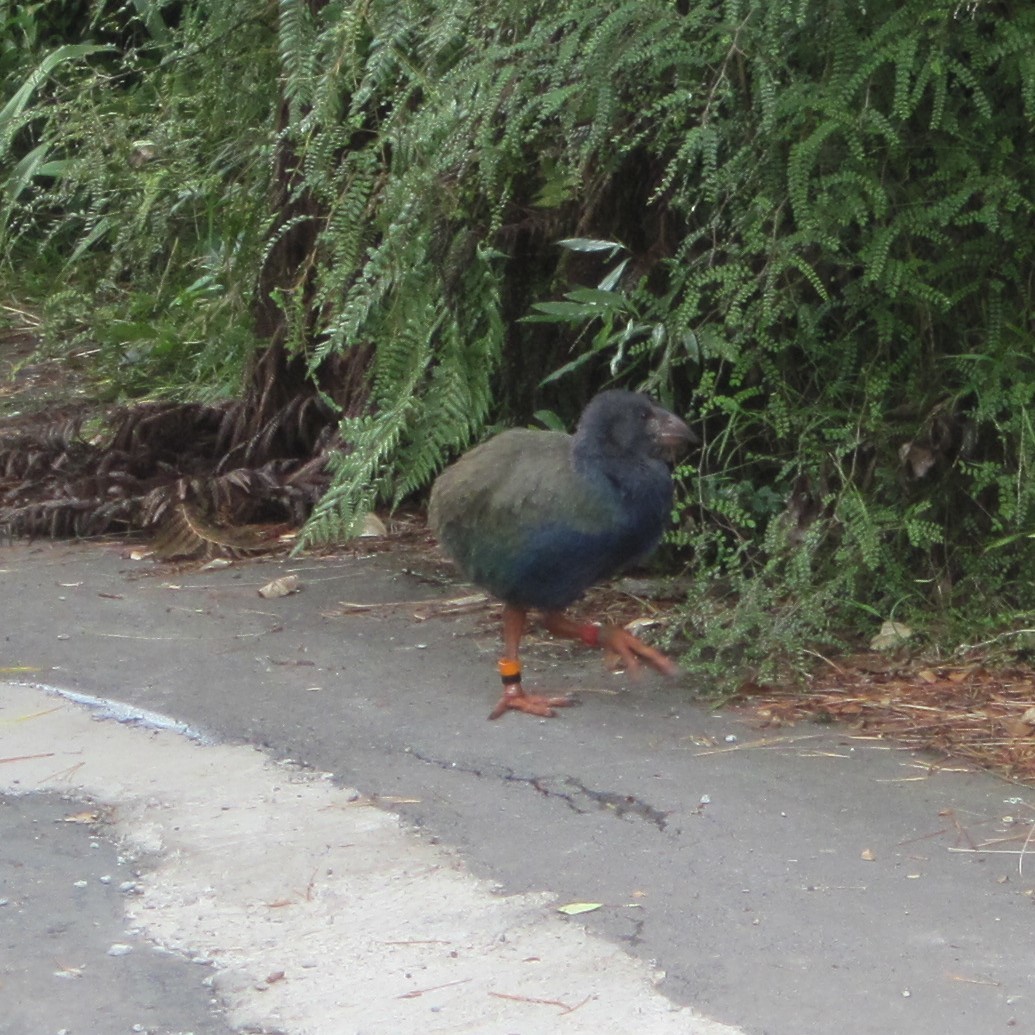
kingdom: Animalia
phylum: Chordata
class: Aves
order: Gruiformes
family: Rallidae
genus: Porphyrio
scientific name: Porphyrio hochstetteri
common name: South island takahe
